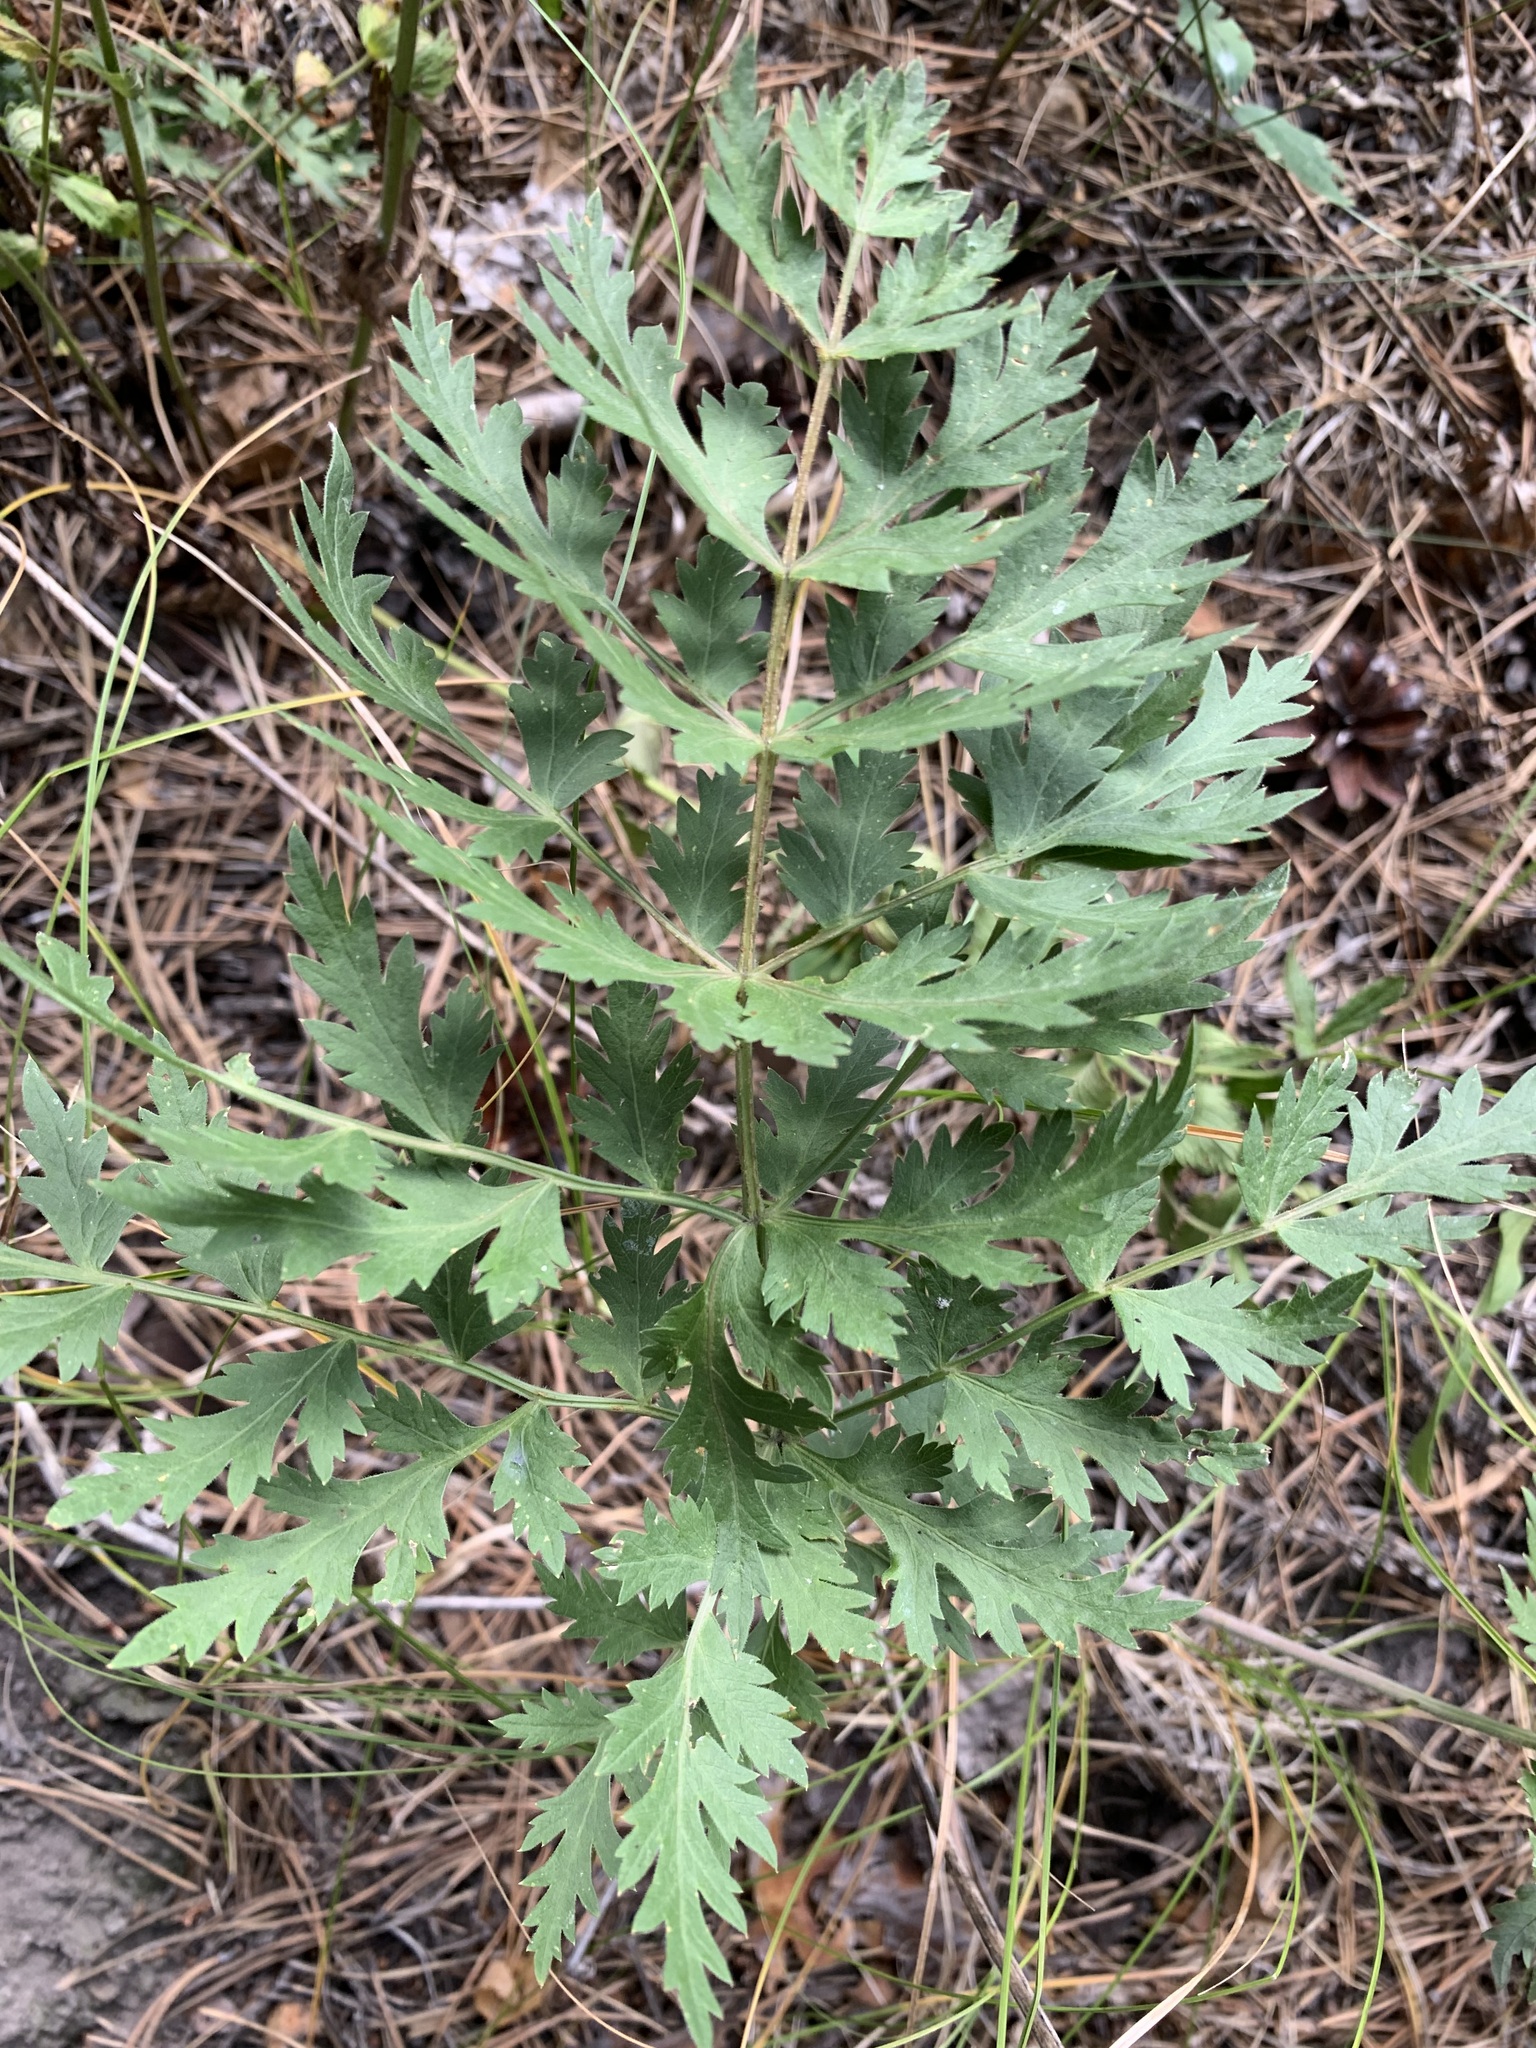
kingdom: Plantae
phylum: Tracheophyta
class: Magnoliopsida
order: Apiales
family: Apiaceae
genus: Seseli
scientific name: Seseli libanotis
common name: Mooncarrot
